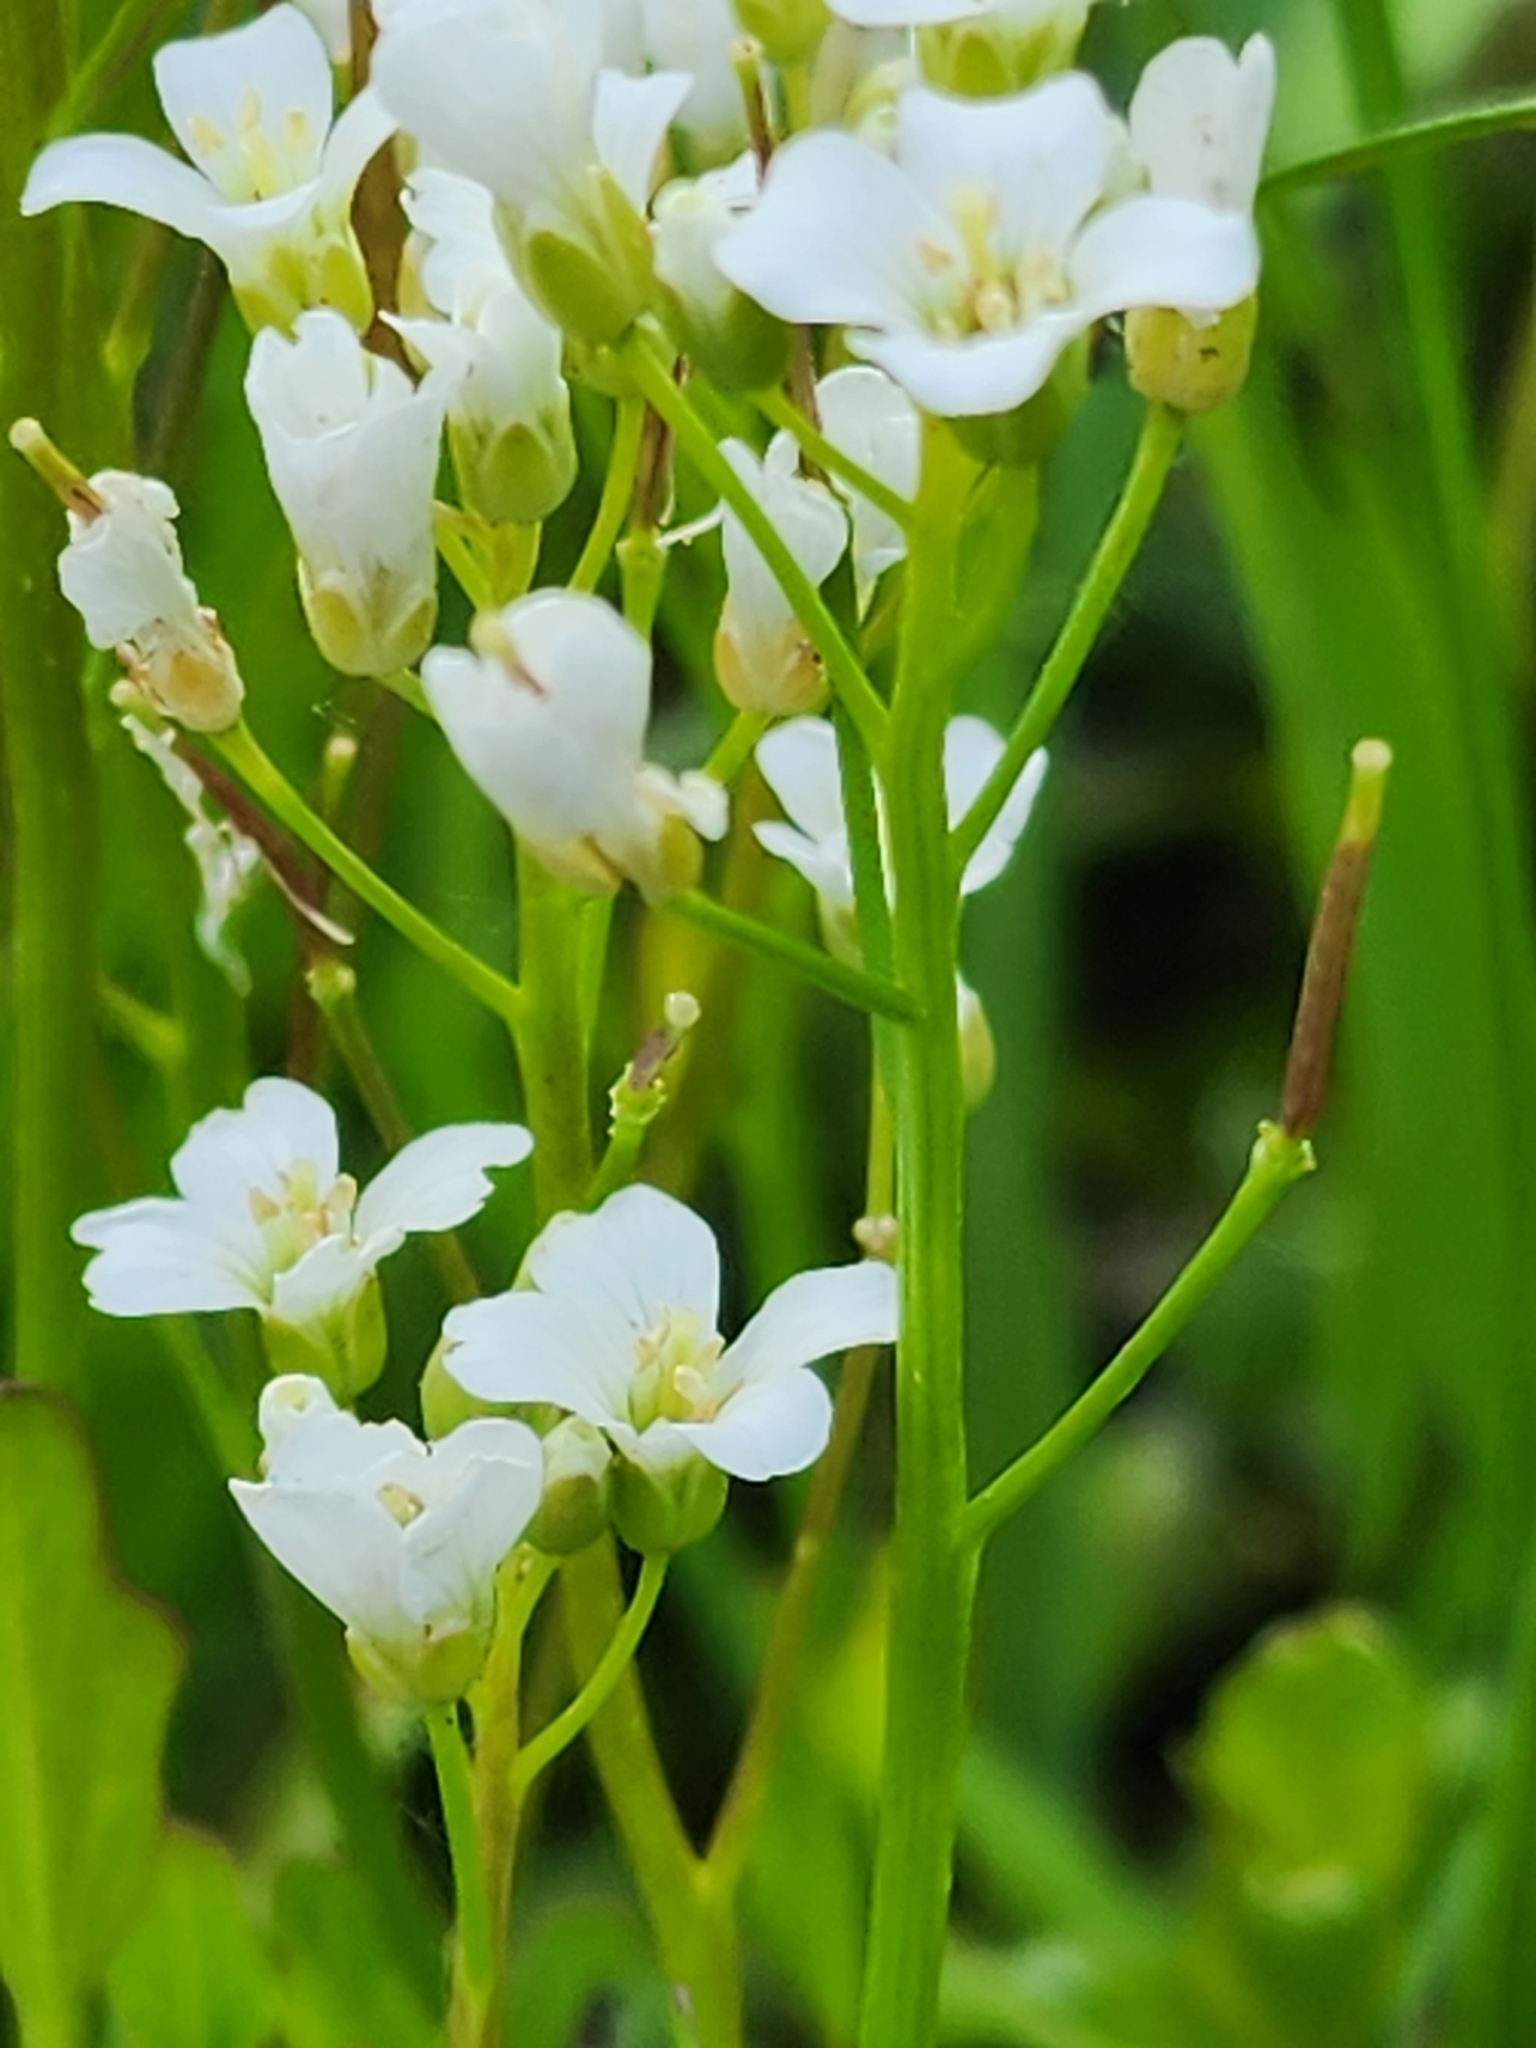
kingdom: Plantae
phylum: Tracheophyta
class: Magnoliopsida
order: Brassicales
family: Brassicaceae
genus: Cardamine
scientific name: Cardamine bulbosa
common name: Spring cress
